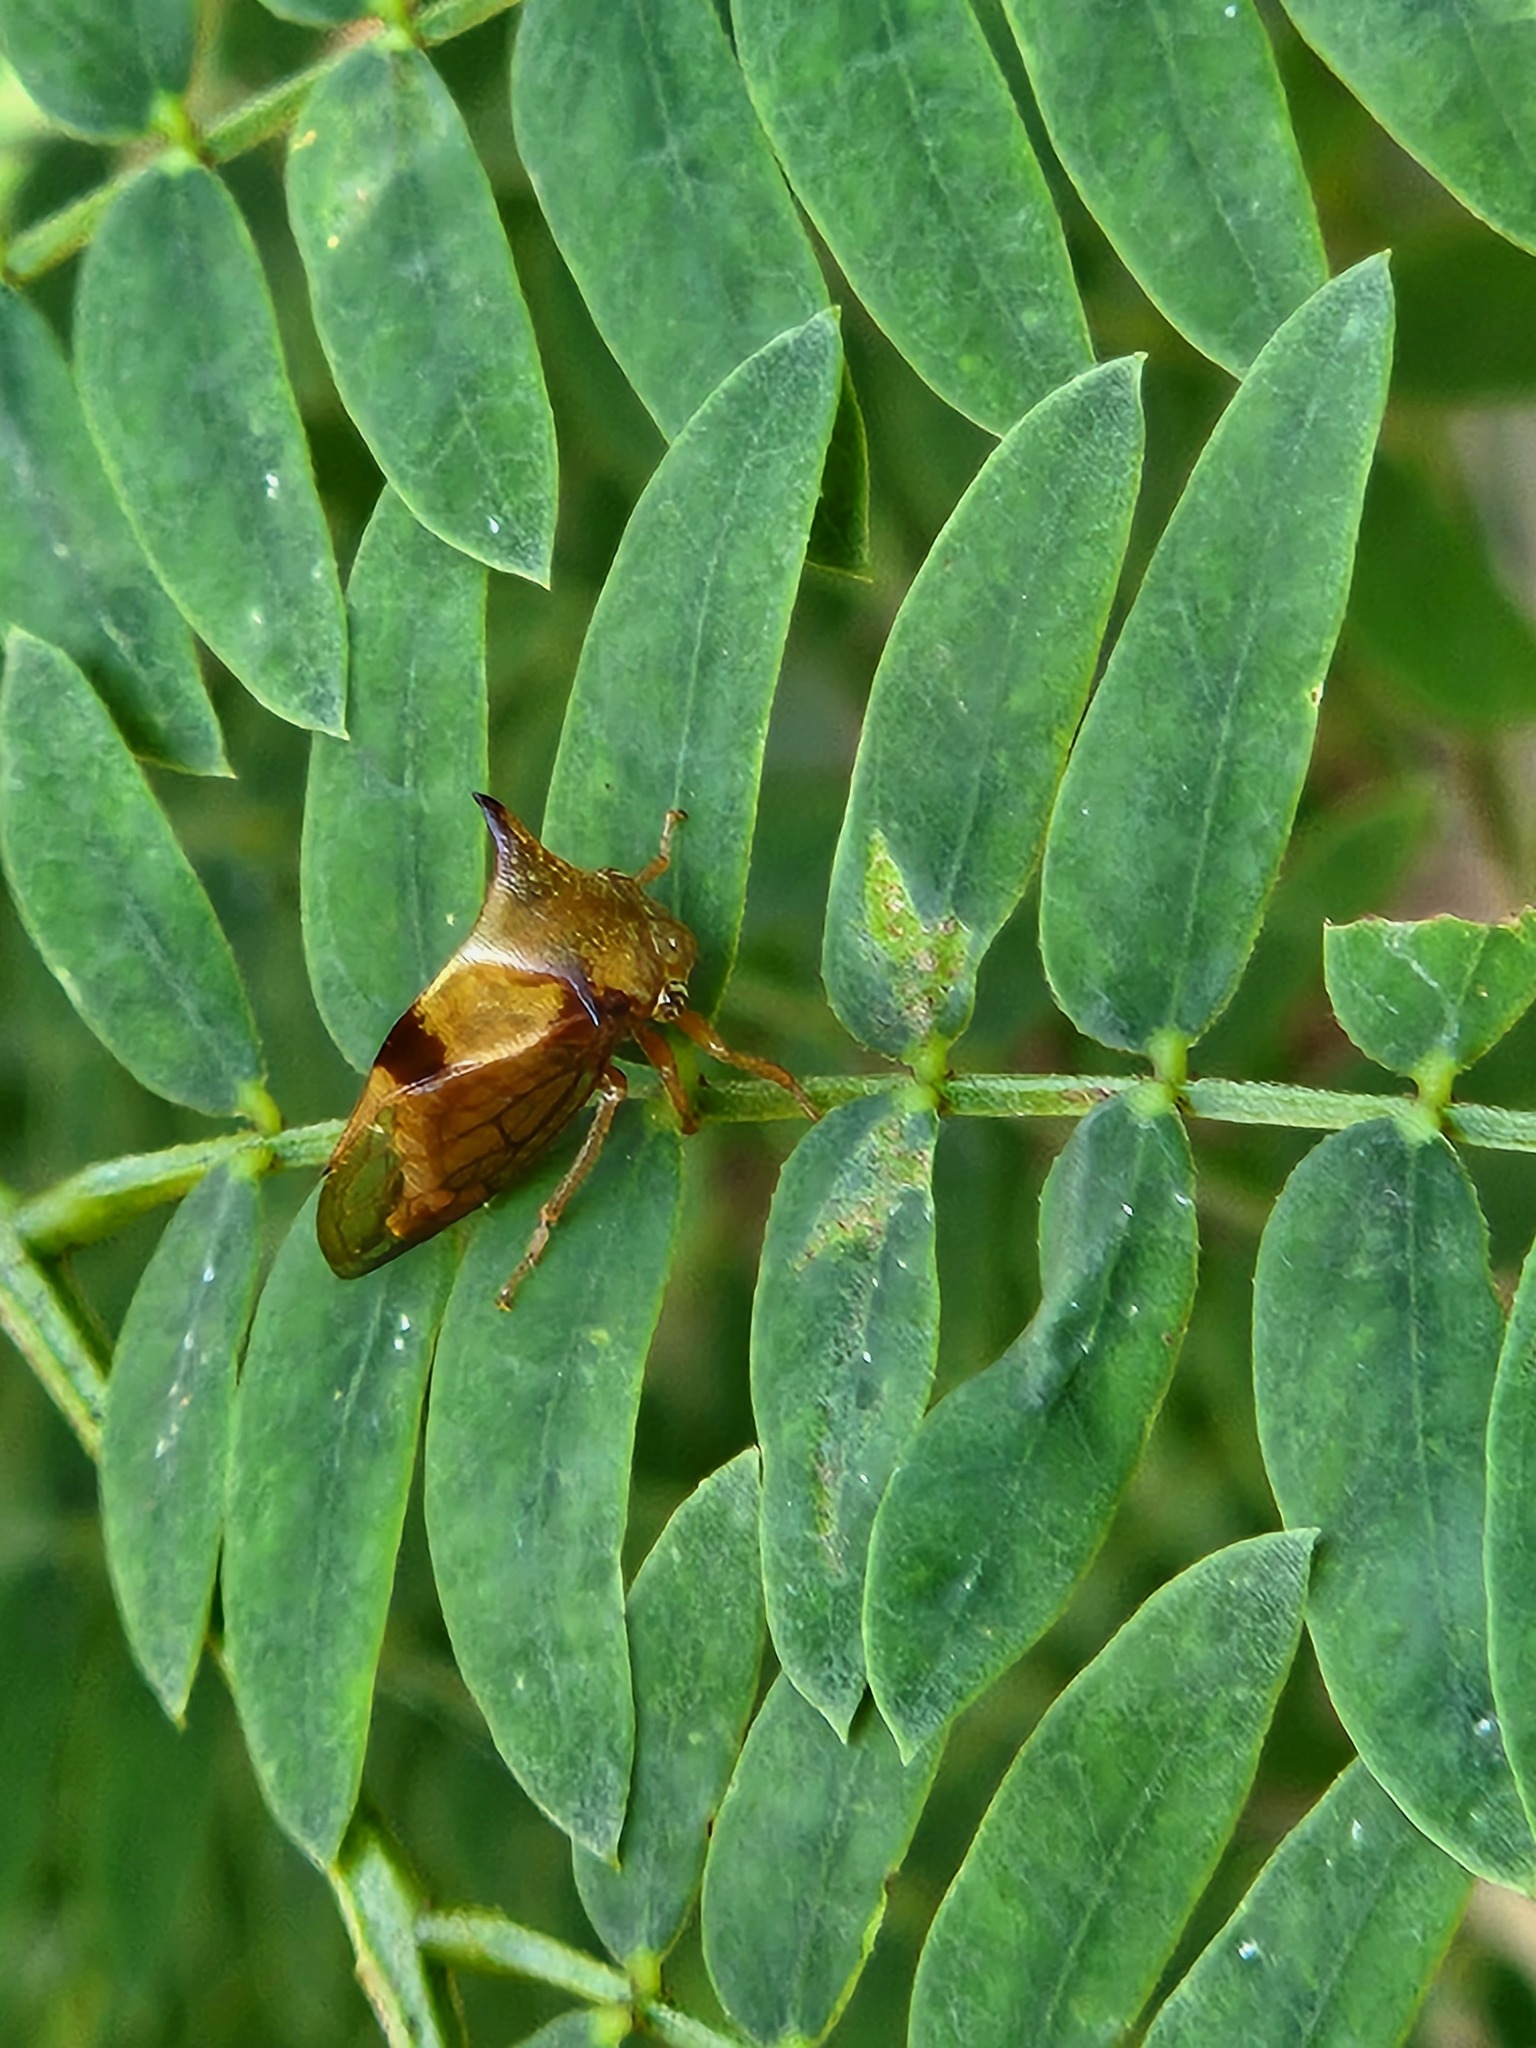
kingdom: Animalia
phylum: Arthropoda
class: Insecta
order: Hemiptera
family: Membracidae
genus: Ceresa
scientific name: Ceresa paulistana
